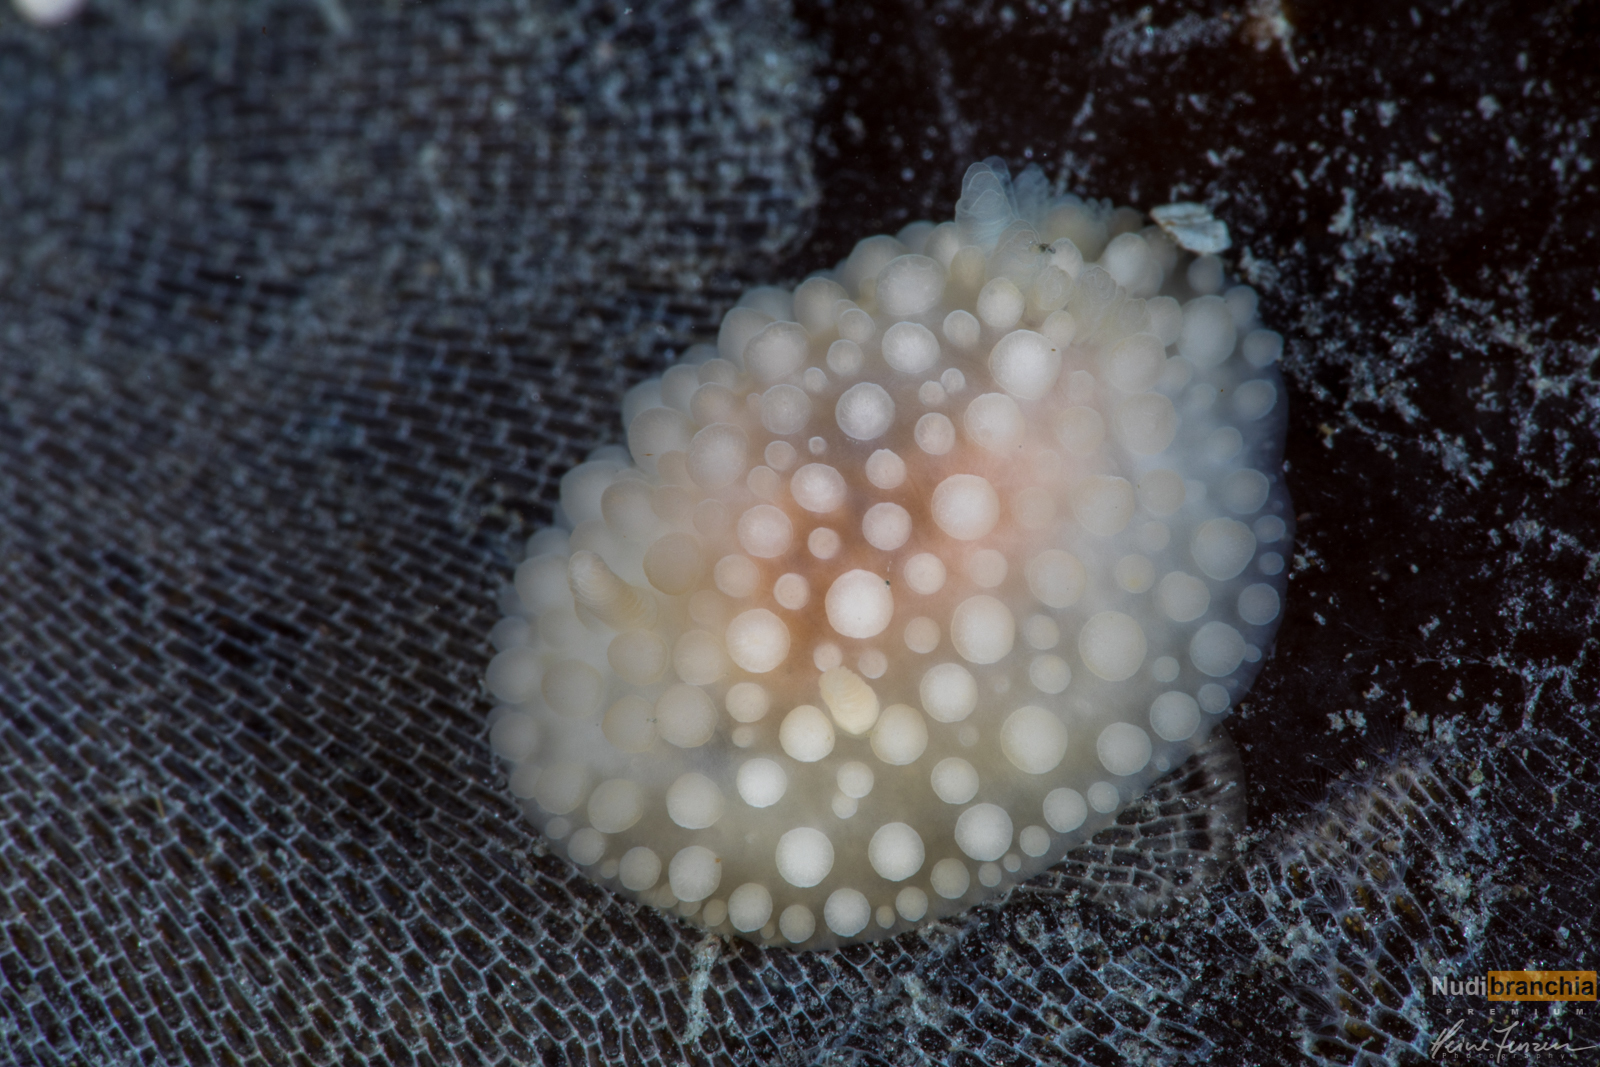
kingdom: Animalia
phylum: Mollusca
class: Gastropoda
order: Nudibranchia
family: Onchidorididae
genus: Adalaria
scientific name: Adalaria proxima
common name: False doris
